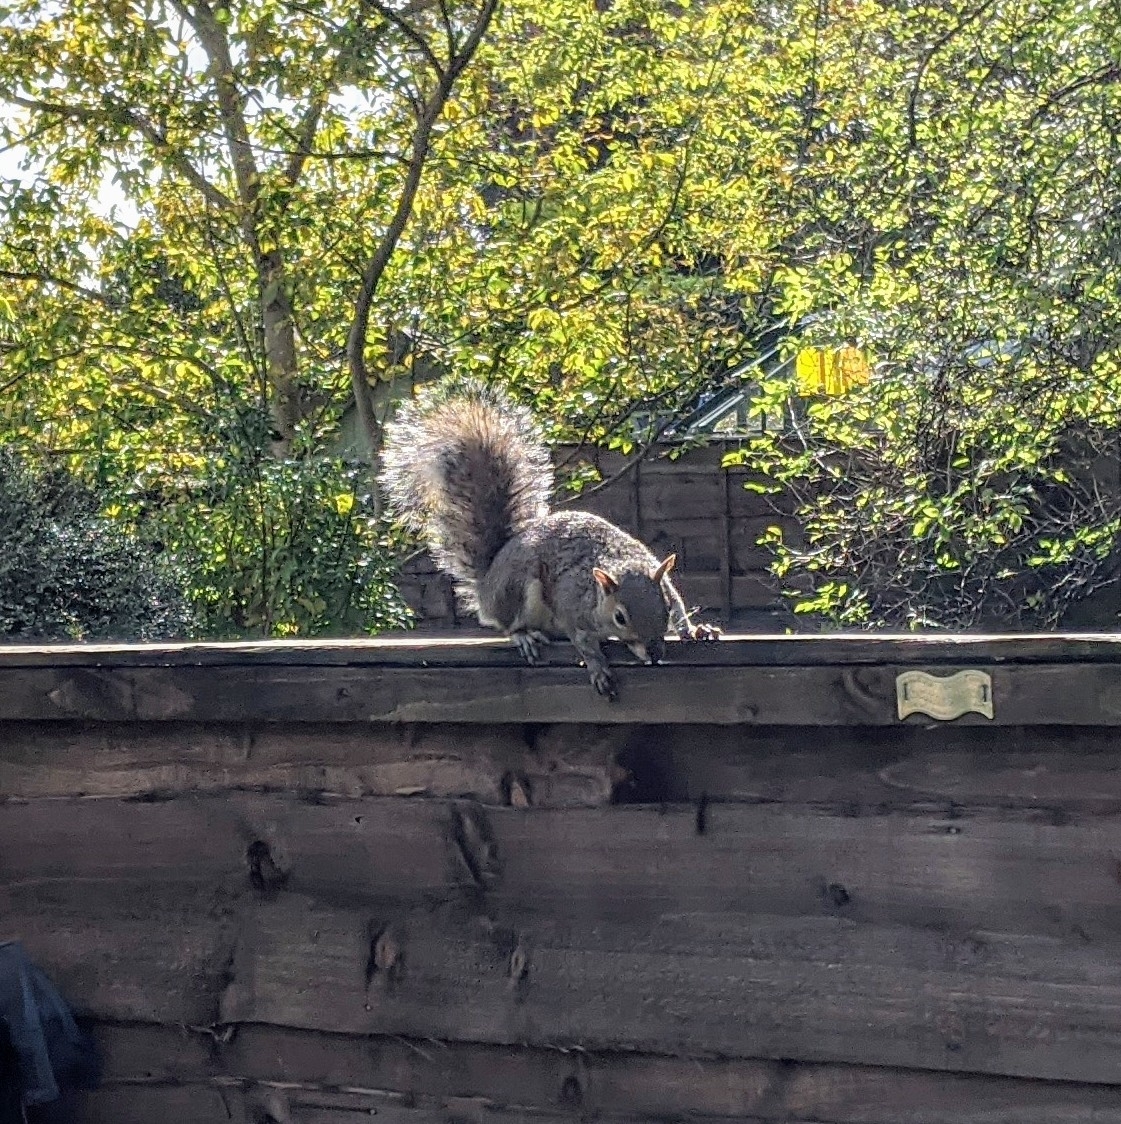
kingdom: Animalia
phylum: Chordata
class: Mammalia
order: Rodentia
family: Sciuridae
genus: Sciurus
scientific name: Sciurus carolinensis
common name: Eastern gray squirrel
